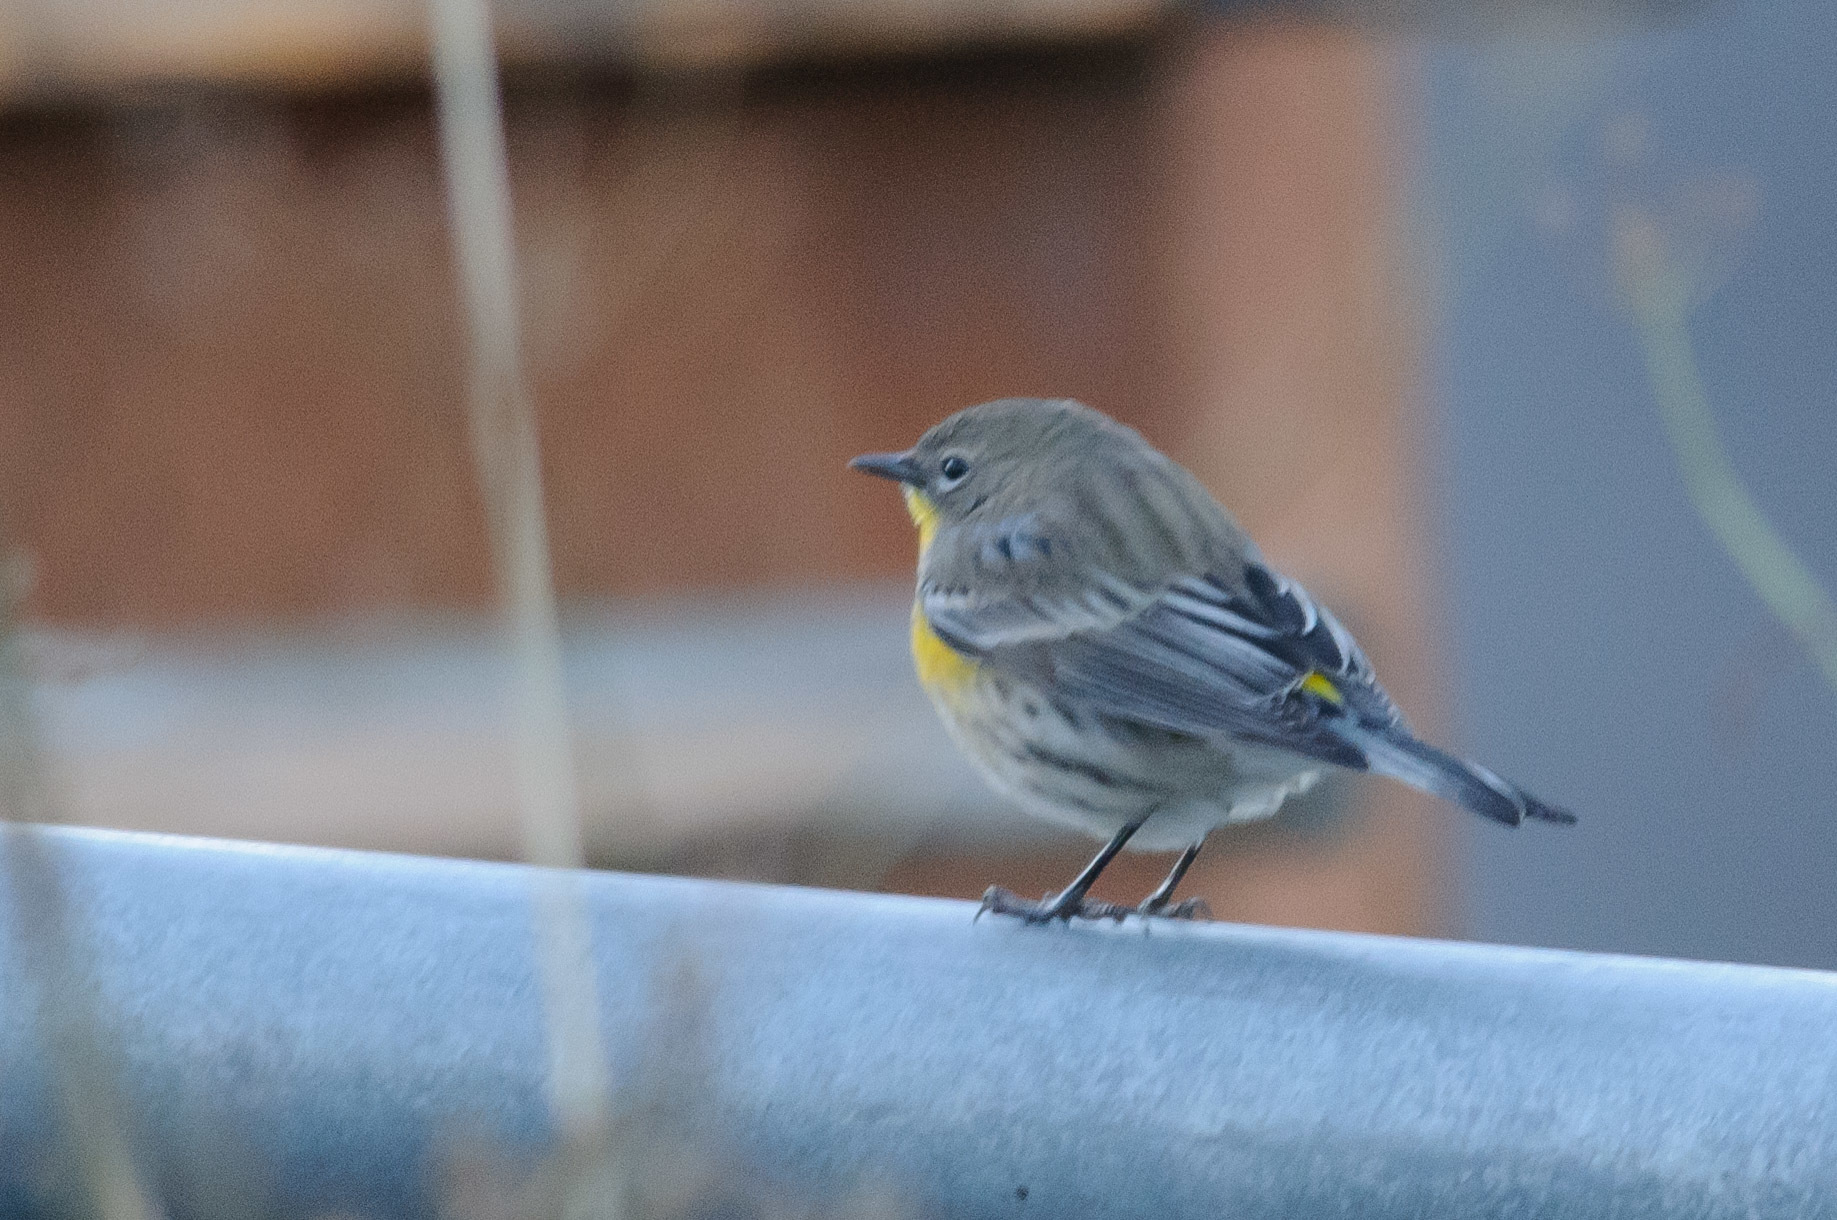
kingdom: Animalia
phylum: Chordata
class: Aves
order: Passeriformes
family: Parulidae
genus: Setophaga
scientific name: Setophaga coronata
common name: Myrtle warbler
